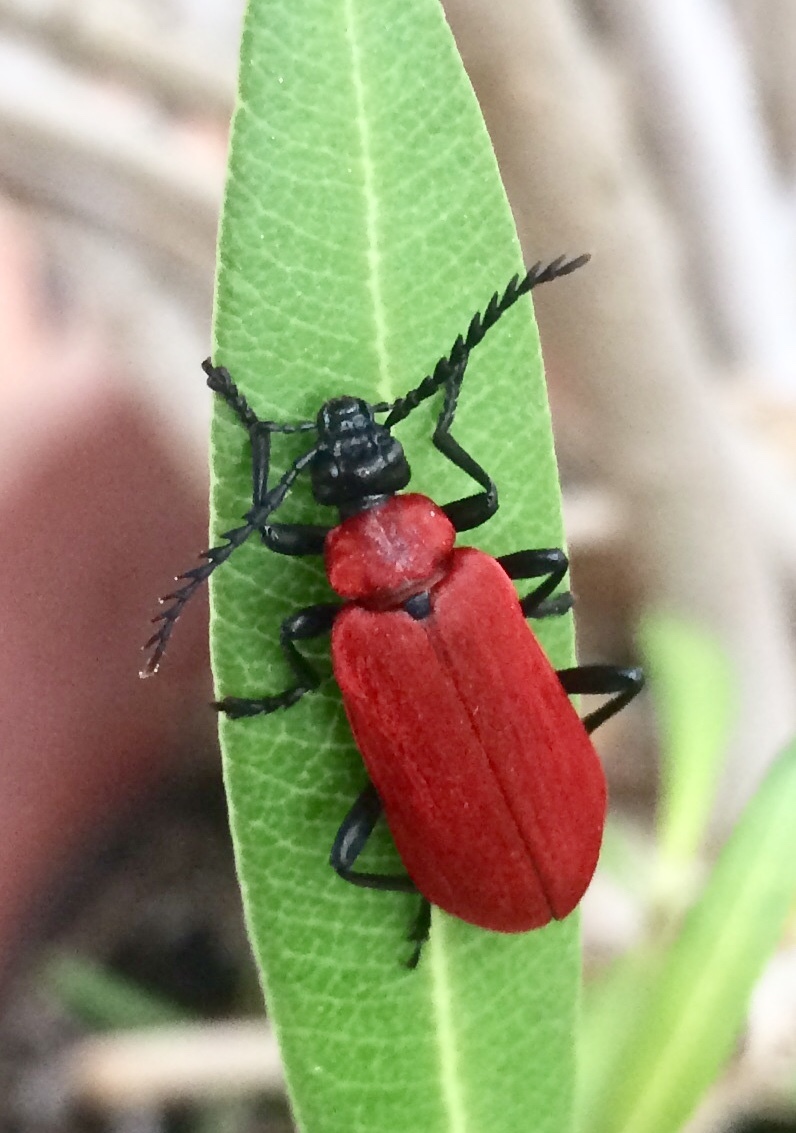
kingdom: Animalia
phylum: Arthropoda
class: Insecta
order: Coleoptera
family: Pyrochroidae
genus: Pyrochroa
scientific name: Pyrochroa coccinea
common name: Black-headed cardinal beetle
